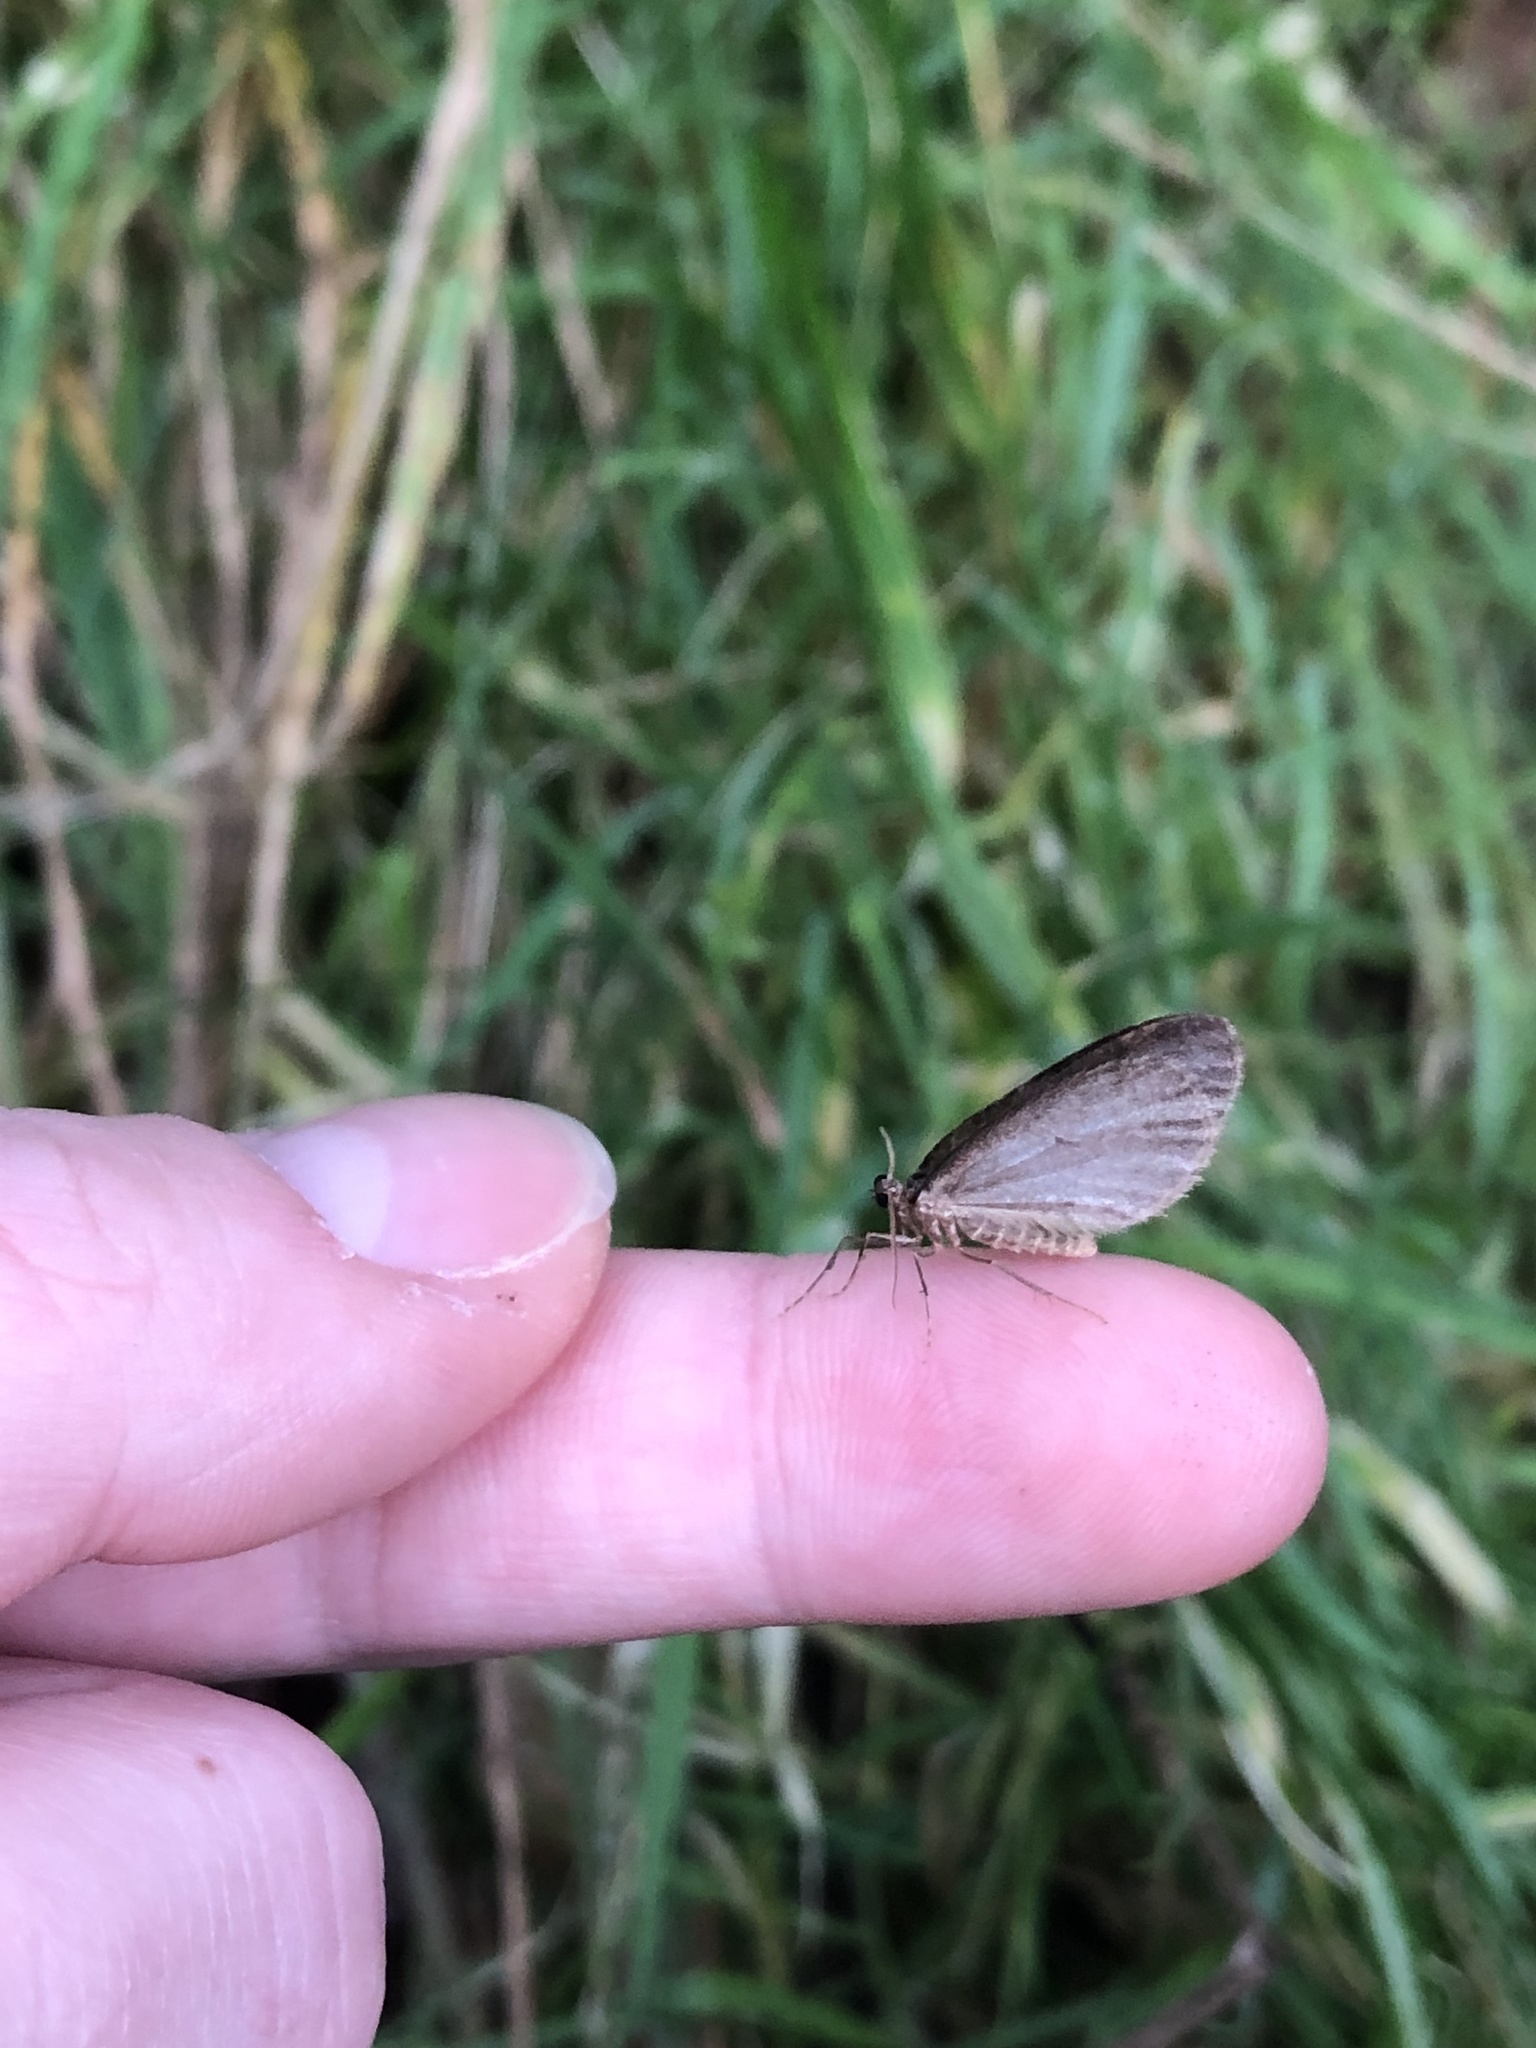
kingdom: Animalia
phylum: Arthropoda
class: Insecta
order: Lepidoptera
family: Geometridae
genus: Operophtera
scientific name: Operophtera brumata
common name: Winter moth
